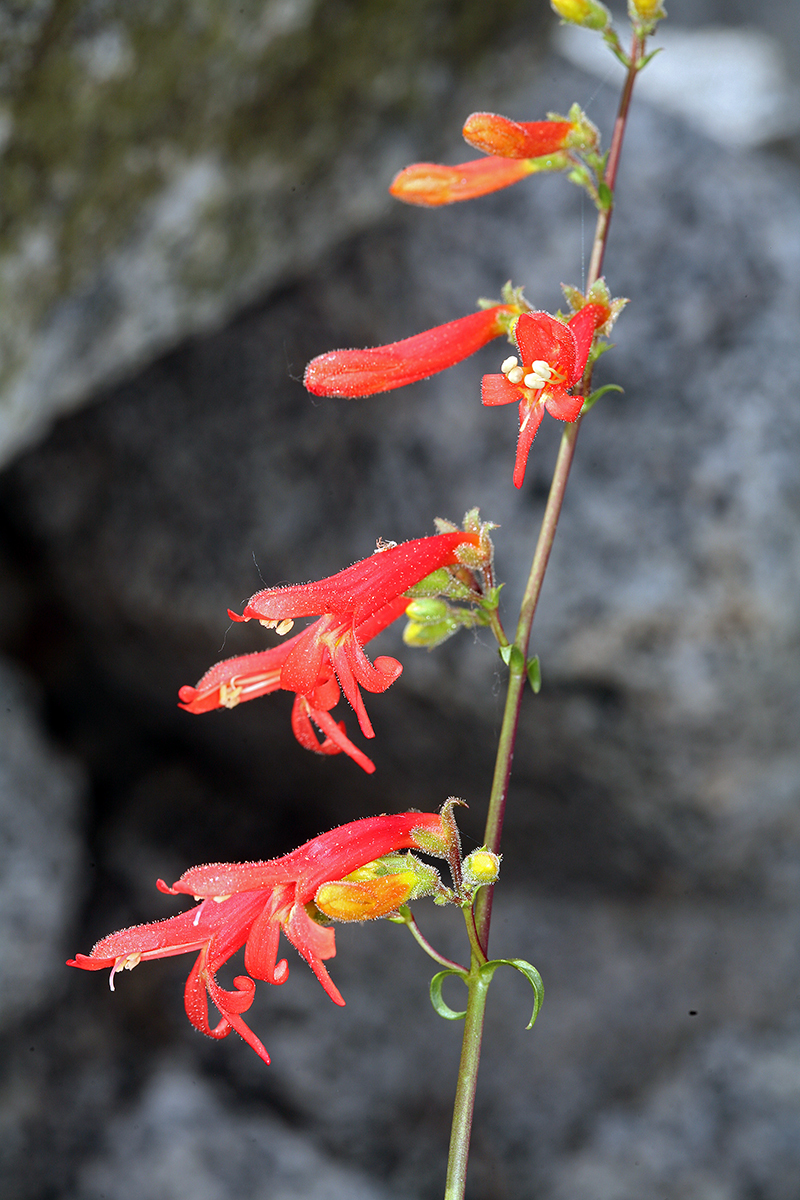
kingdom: Plantae
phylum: Tracheophyta
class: Magnoliopsida
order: Lamiales
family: Plantaginaceae
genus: Penstemon
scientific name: Penstemon rostriflorus
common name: Bridges's penstemon
